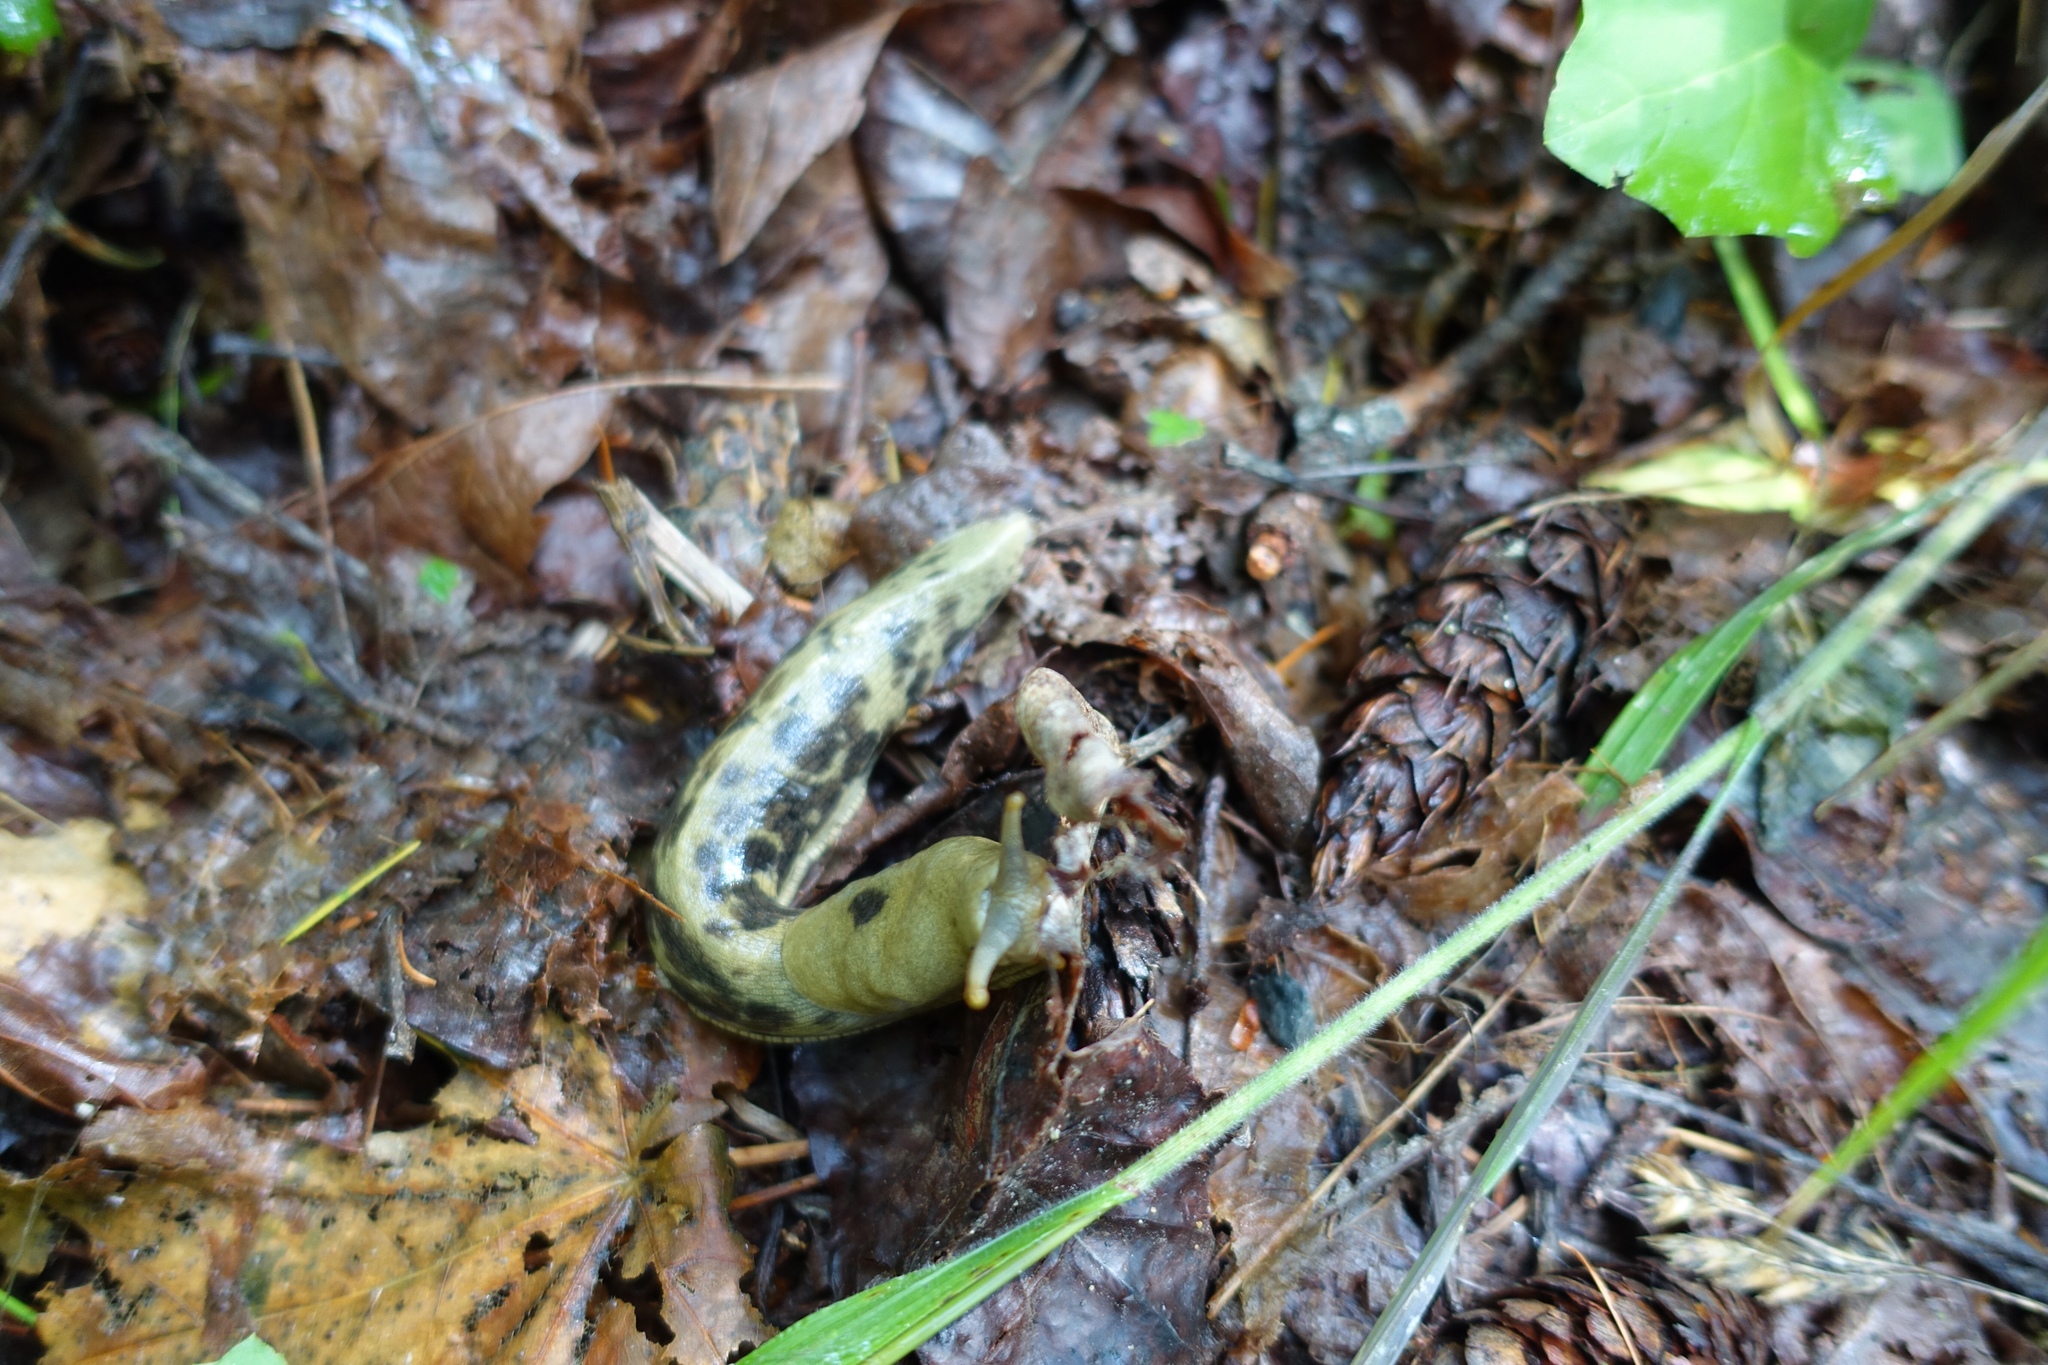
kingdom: Animalia
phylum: Mollusca
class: Gastropoda
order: Stylommatophora
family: Ariolimacidae
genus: Ariolimax
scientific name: Ariolimax columbianus
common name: Pacific banana slug
